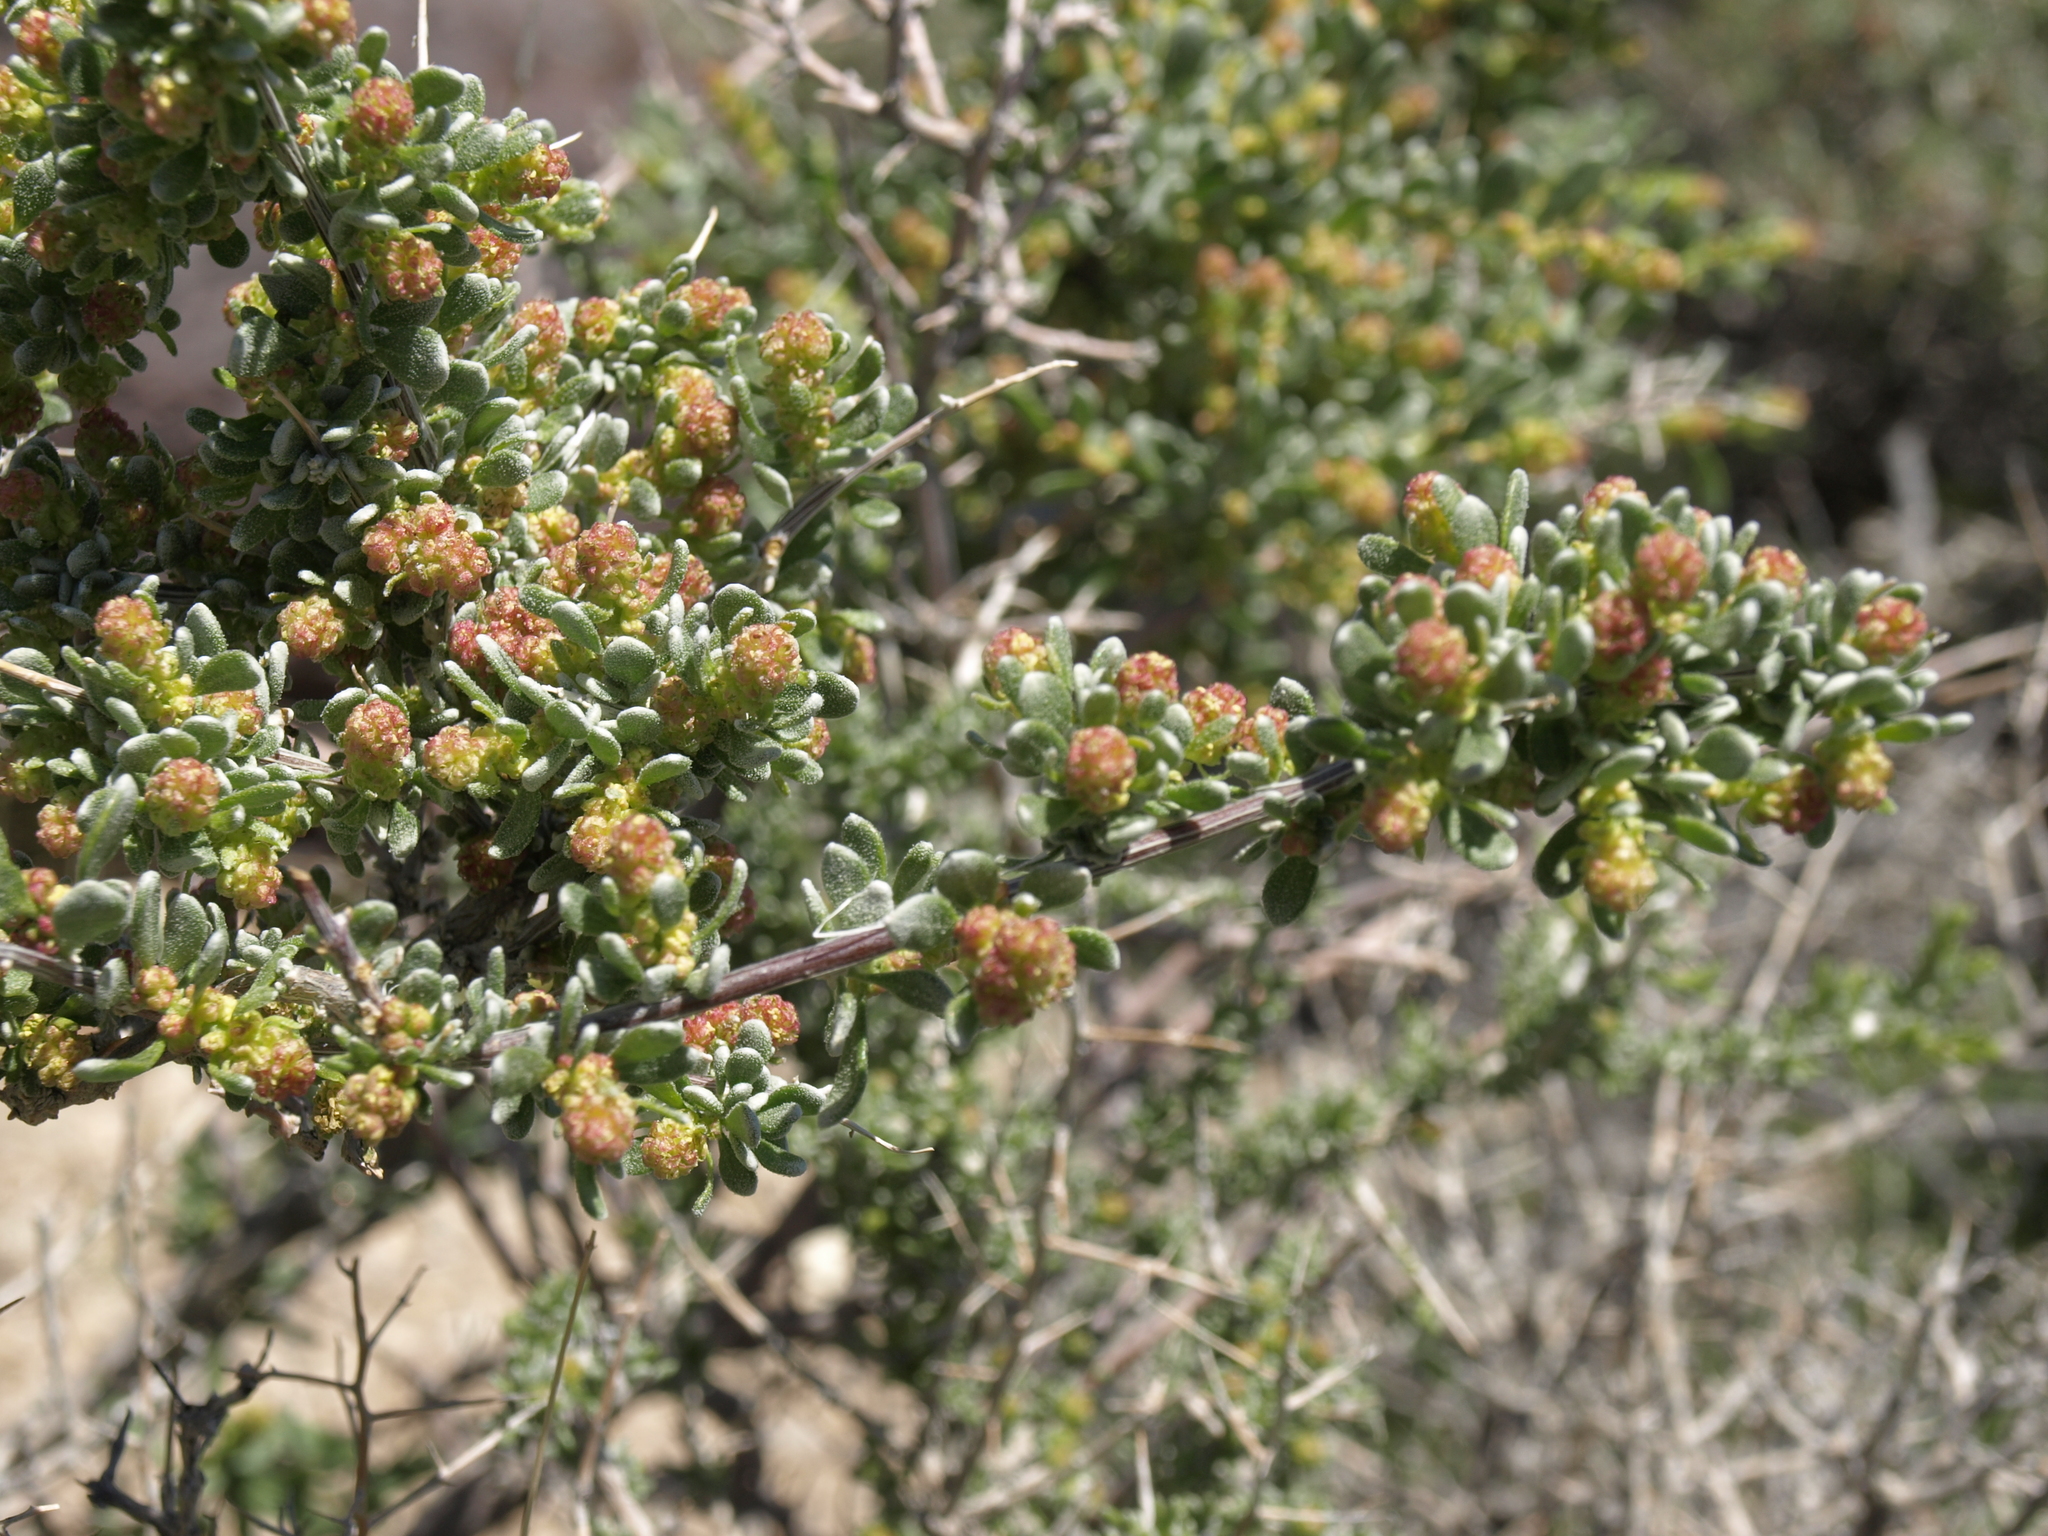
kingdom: Plantae
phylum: Tracheophyta
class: Magnoliopsida
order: Caryophyllales
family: Amaranthaceae
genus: Grayia
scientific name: Grayia spinosa
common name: Spiny hopsage
